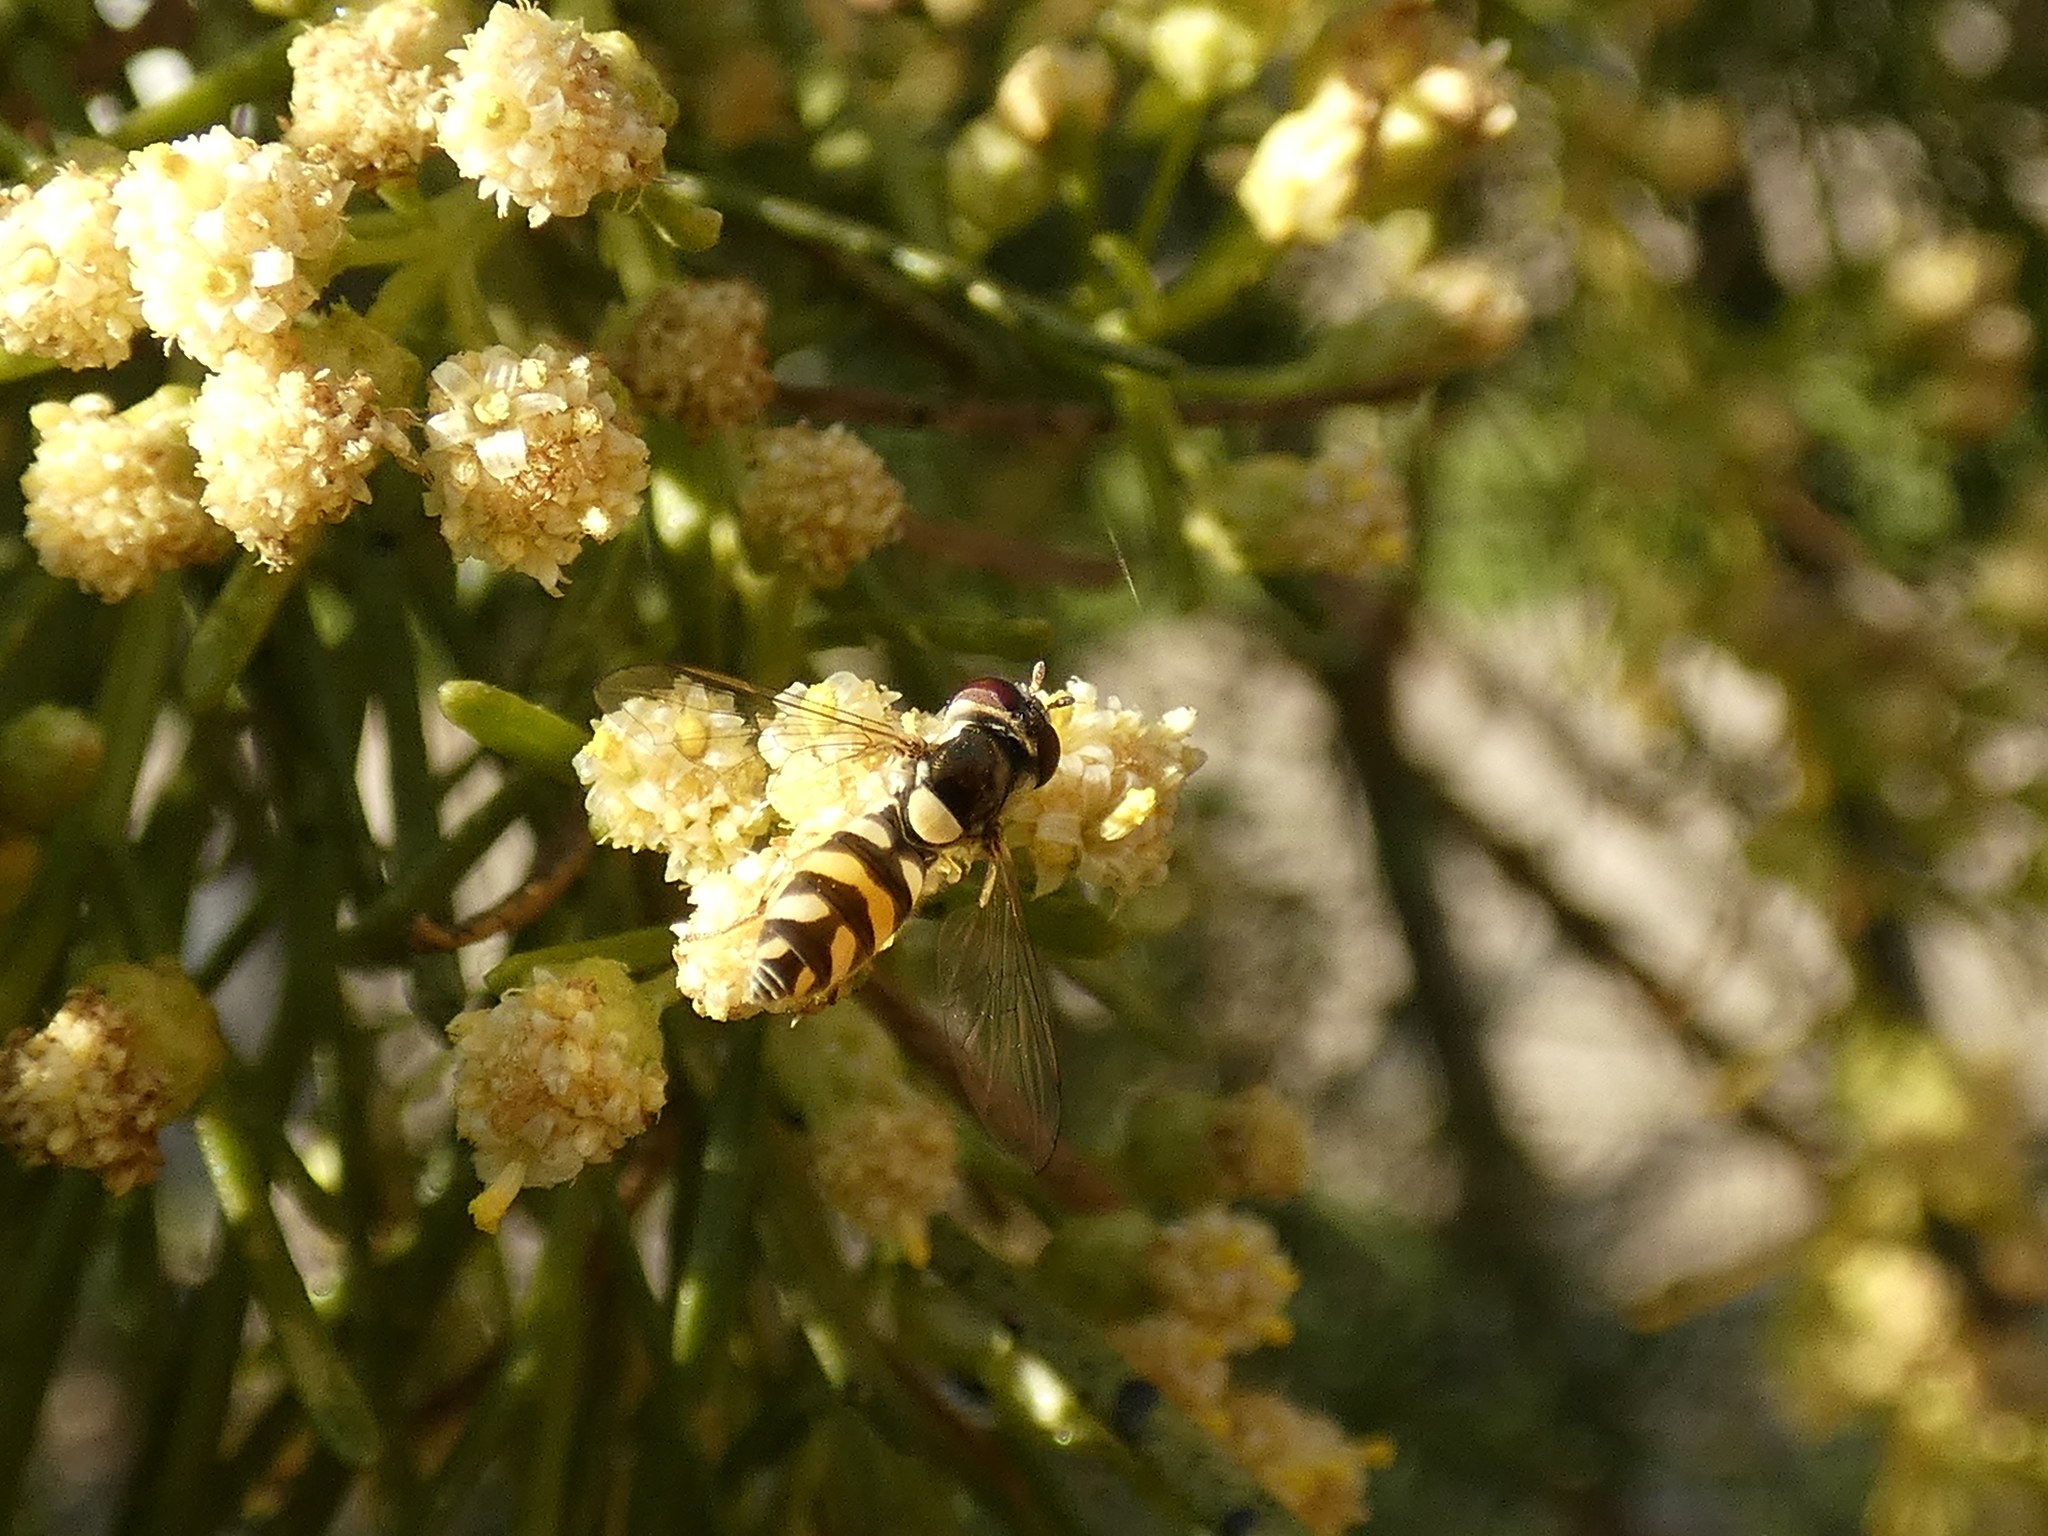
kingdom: Animalia
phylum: Arthropoda
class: Insecta
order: Diptera
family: Syrphidae
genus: Allograpta
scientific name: Allograpta pulchra
